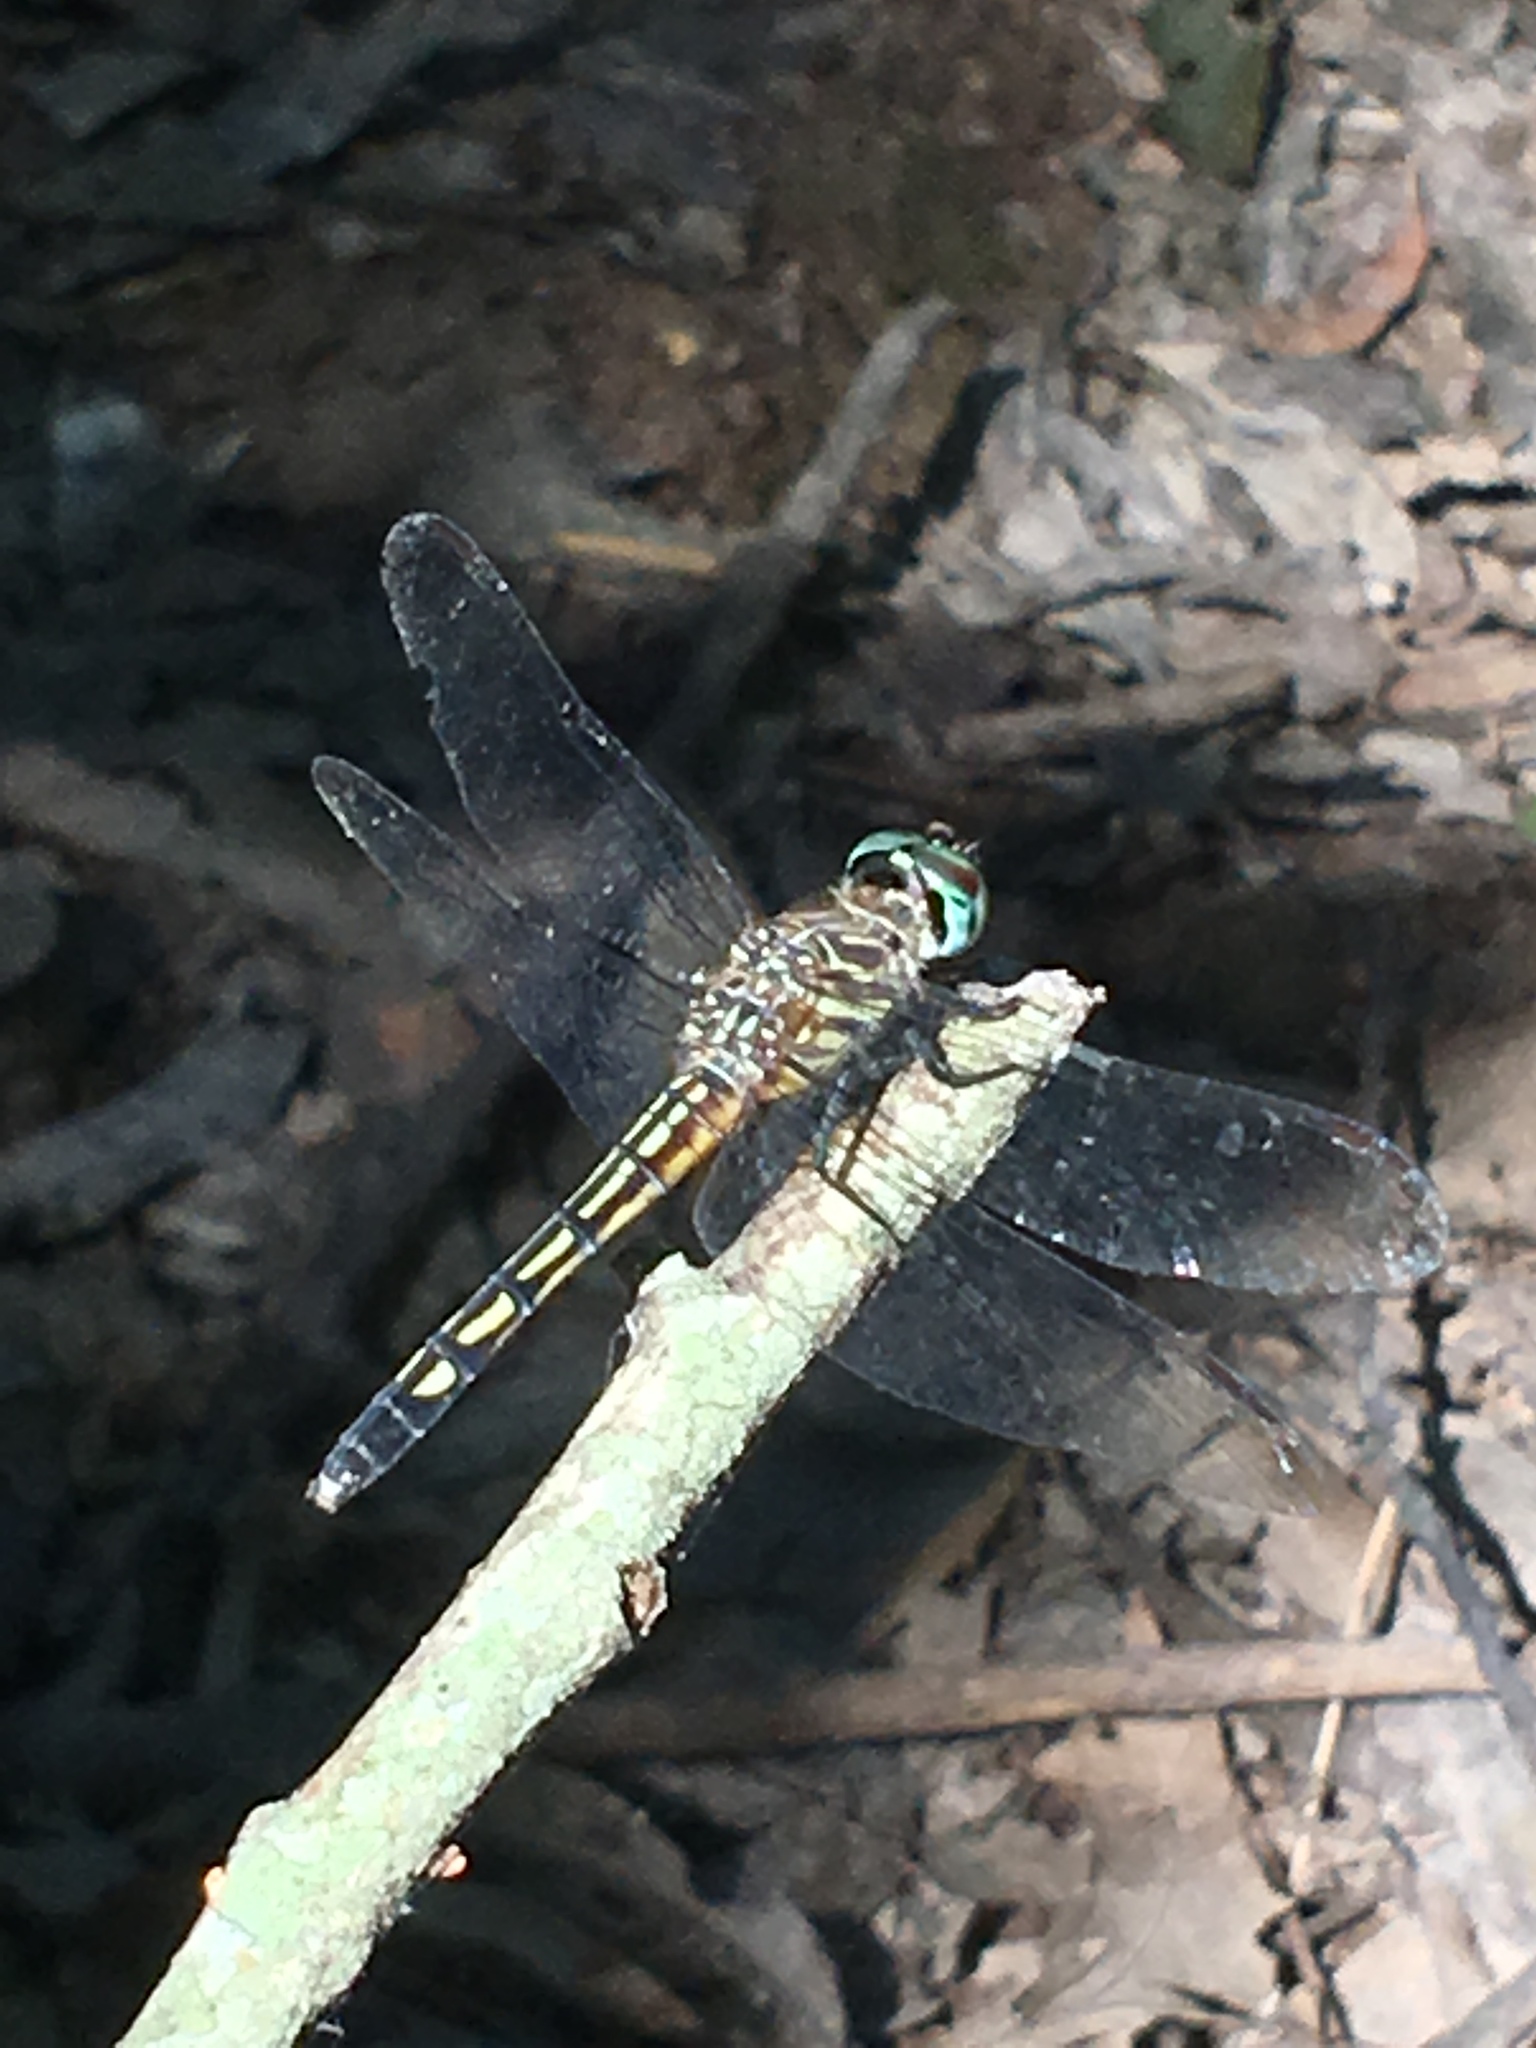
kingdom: Animalia
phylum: Arthropoda
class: Insecta
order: Odonata
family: Libellulidae
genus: Pachydiplax
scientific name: Pachydiplax longipennis
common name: Blue dasher
